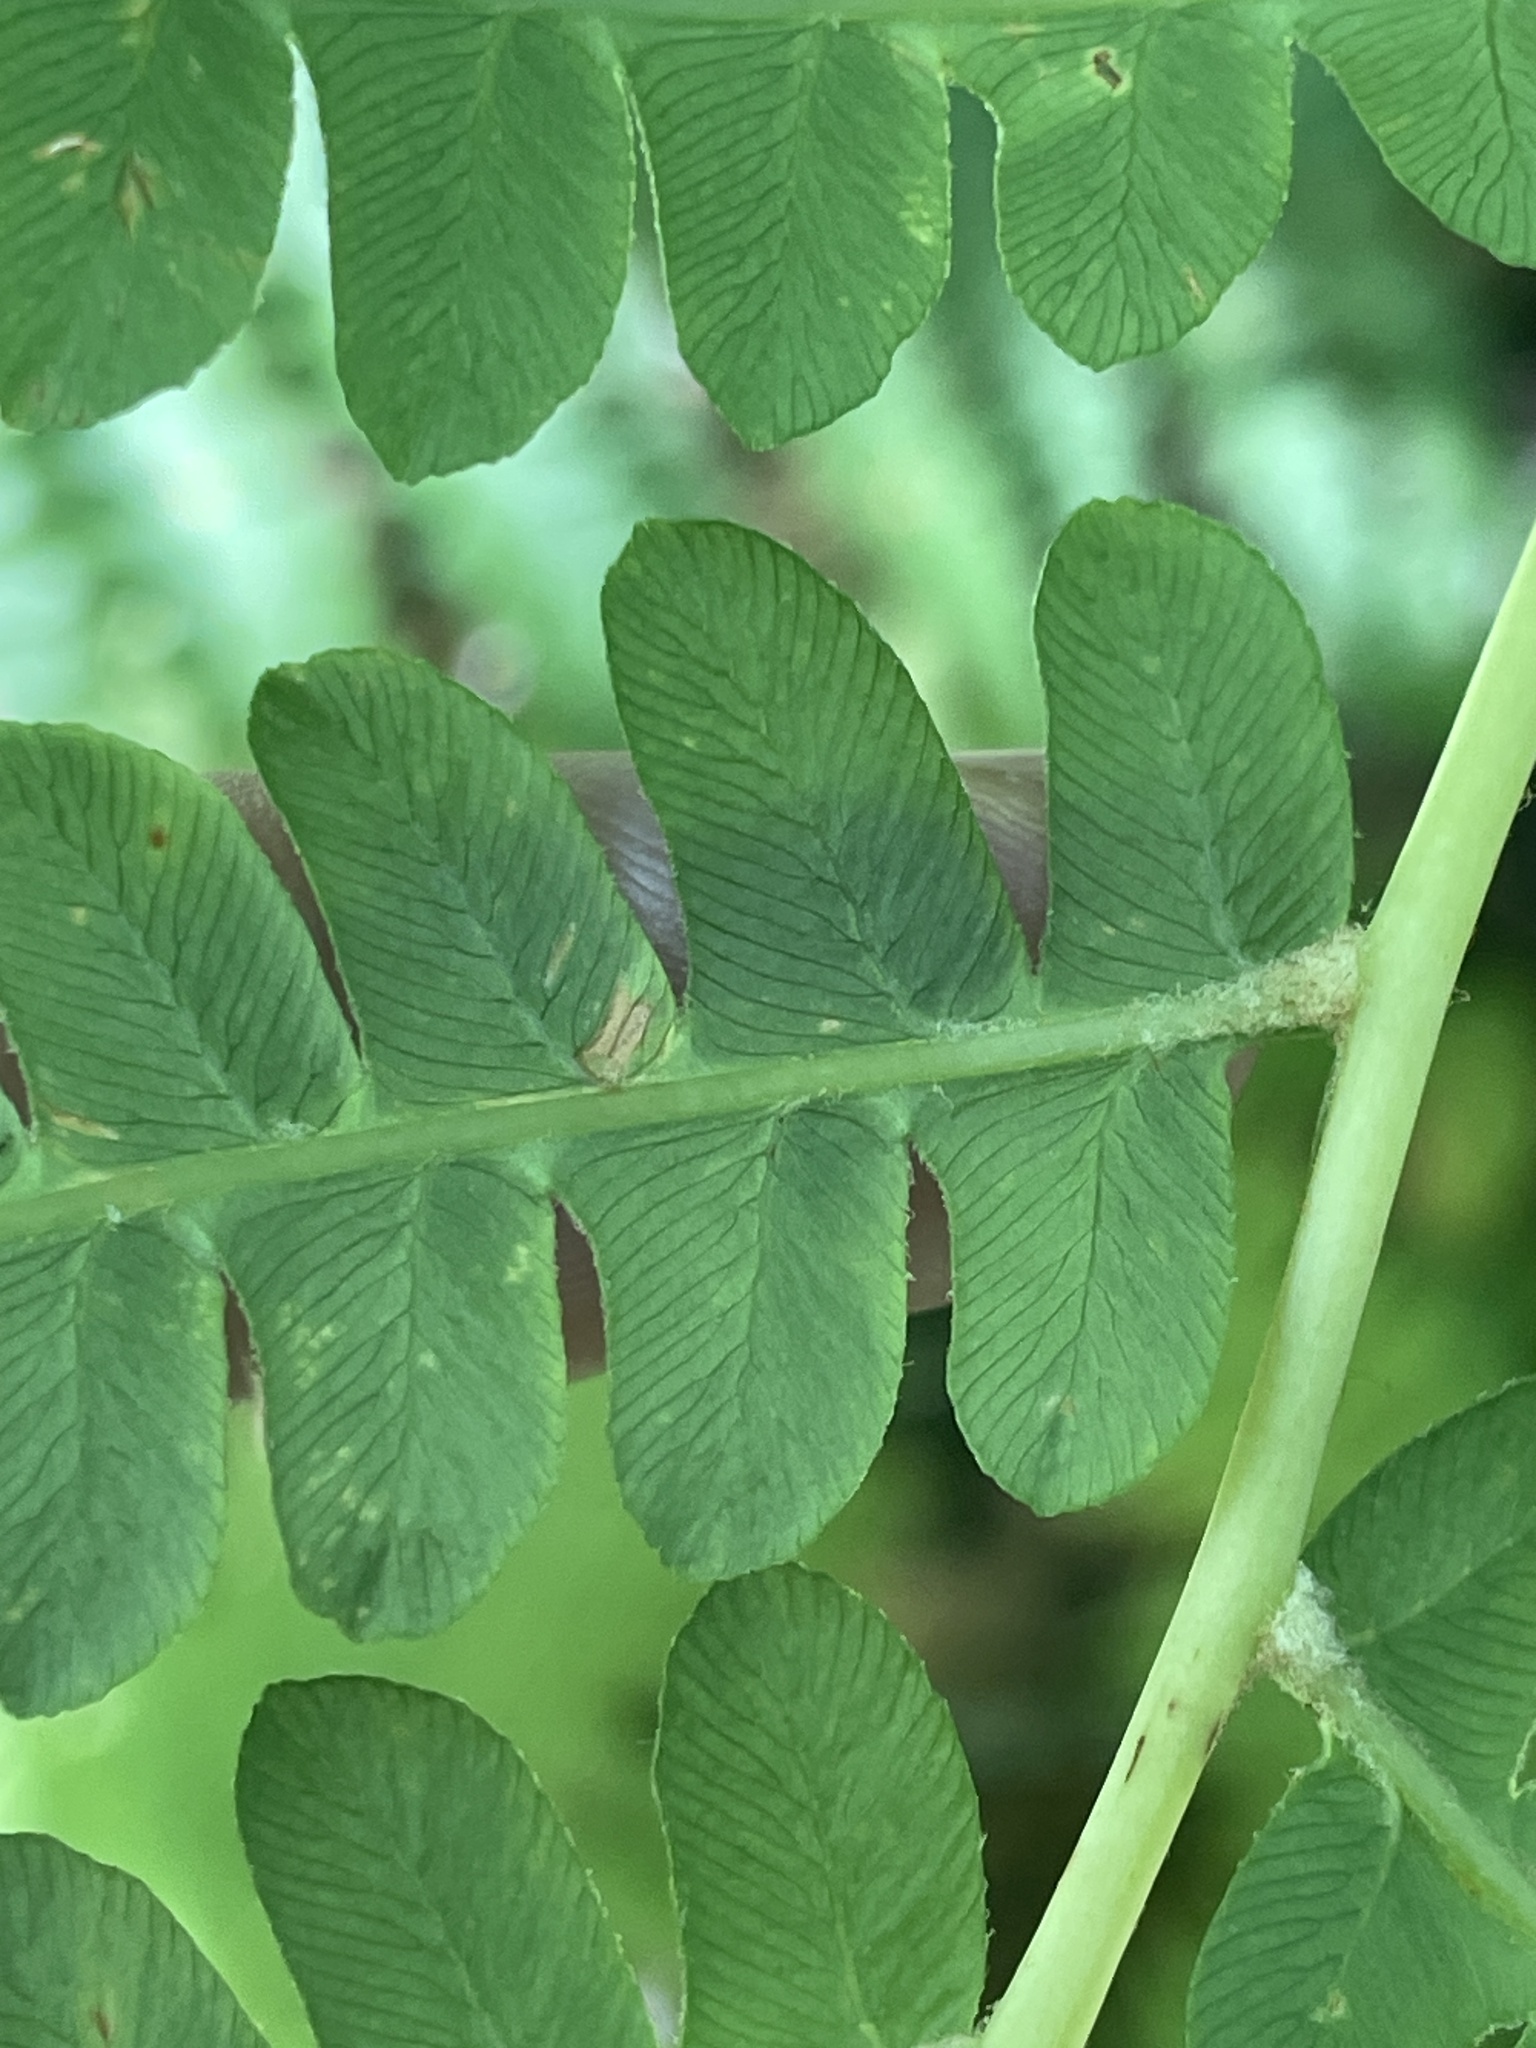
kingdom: Plantae
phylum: Tracheophyta
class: Polypodiopsida
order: Osmundales
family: Osmundaceae
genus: Osmundastrum
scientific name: Osmundastrum cinnamomeum
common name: Cinnamon fern
